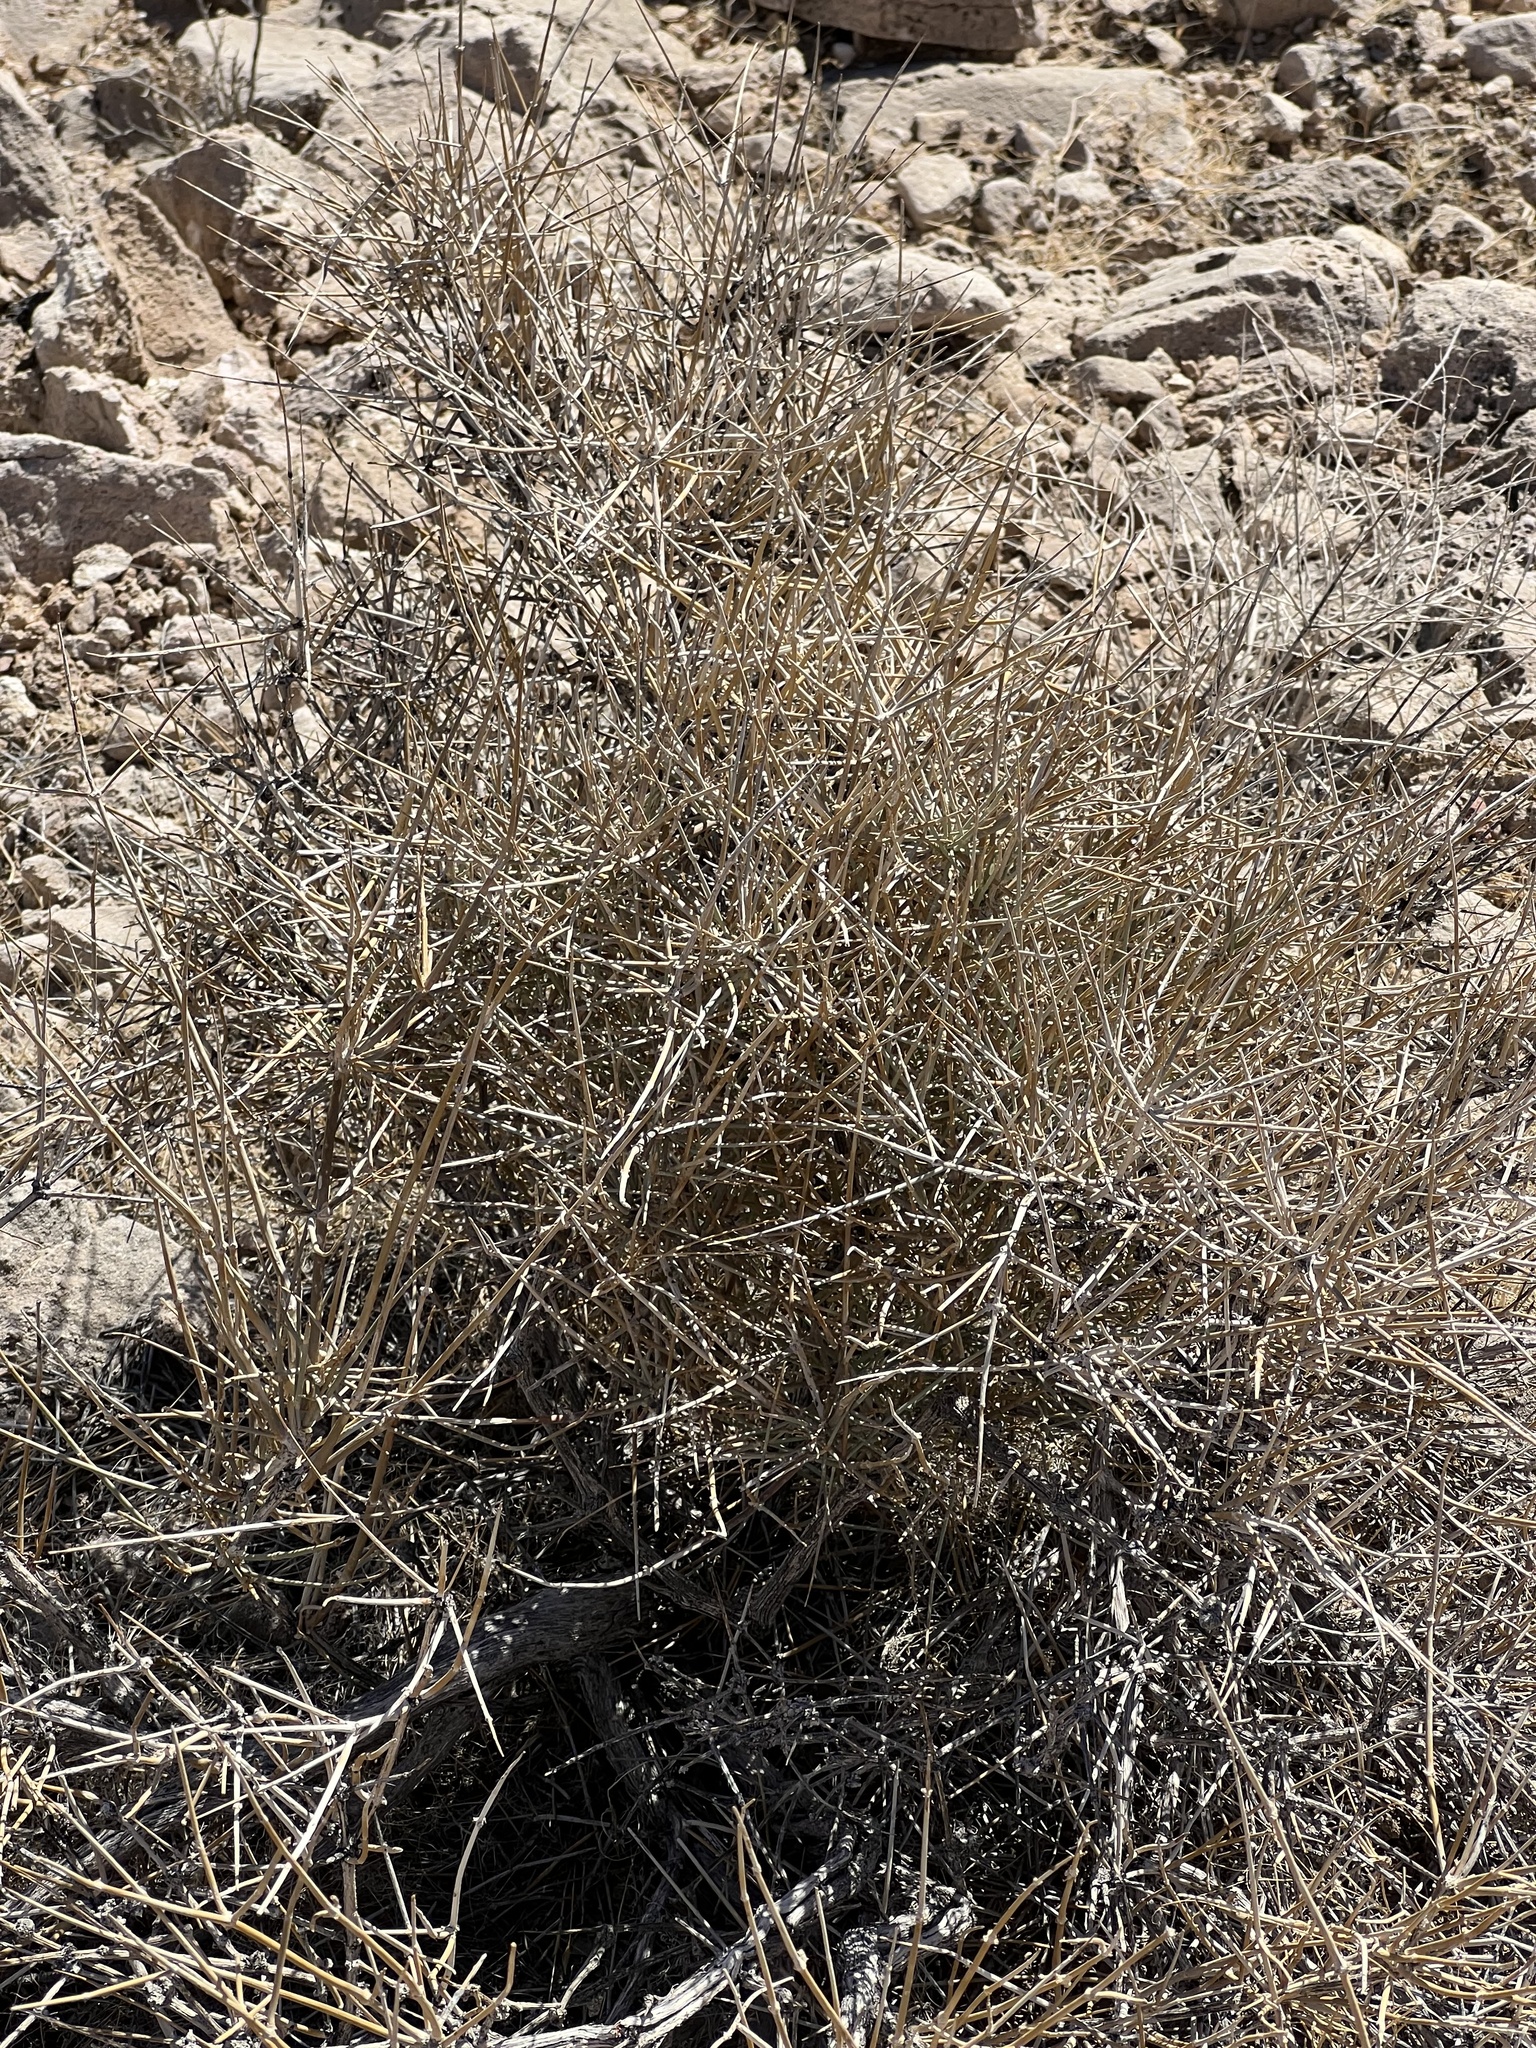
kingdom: Plantae
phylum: Tracheophyta
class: Gnetopsida
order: Ephedrales
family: Ephedraceae
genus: Ephedra
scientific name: Ephedra nevadensis
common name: Gray ephedra
